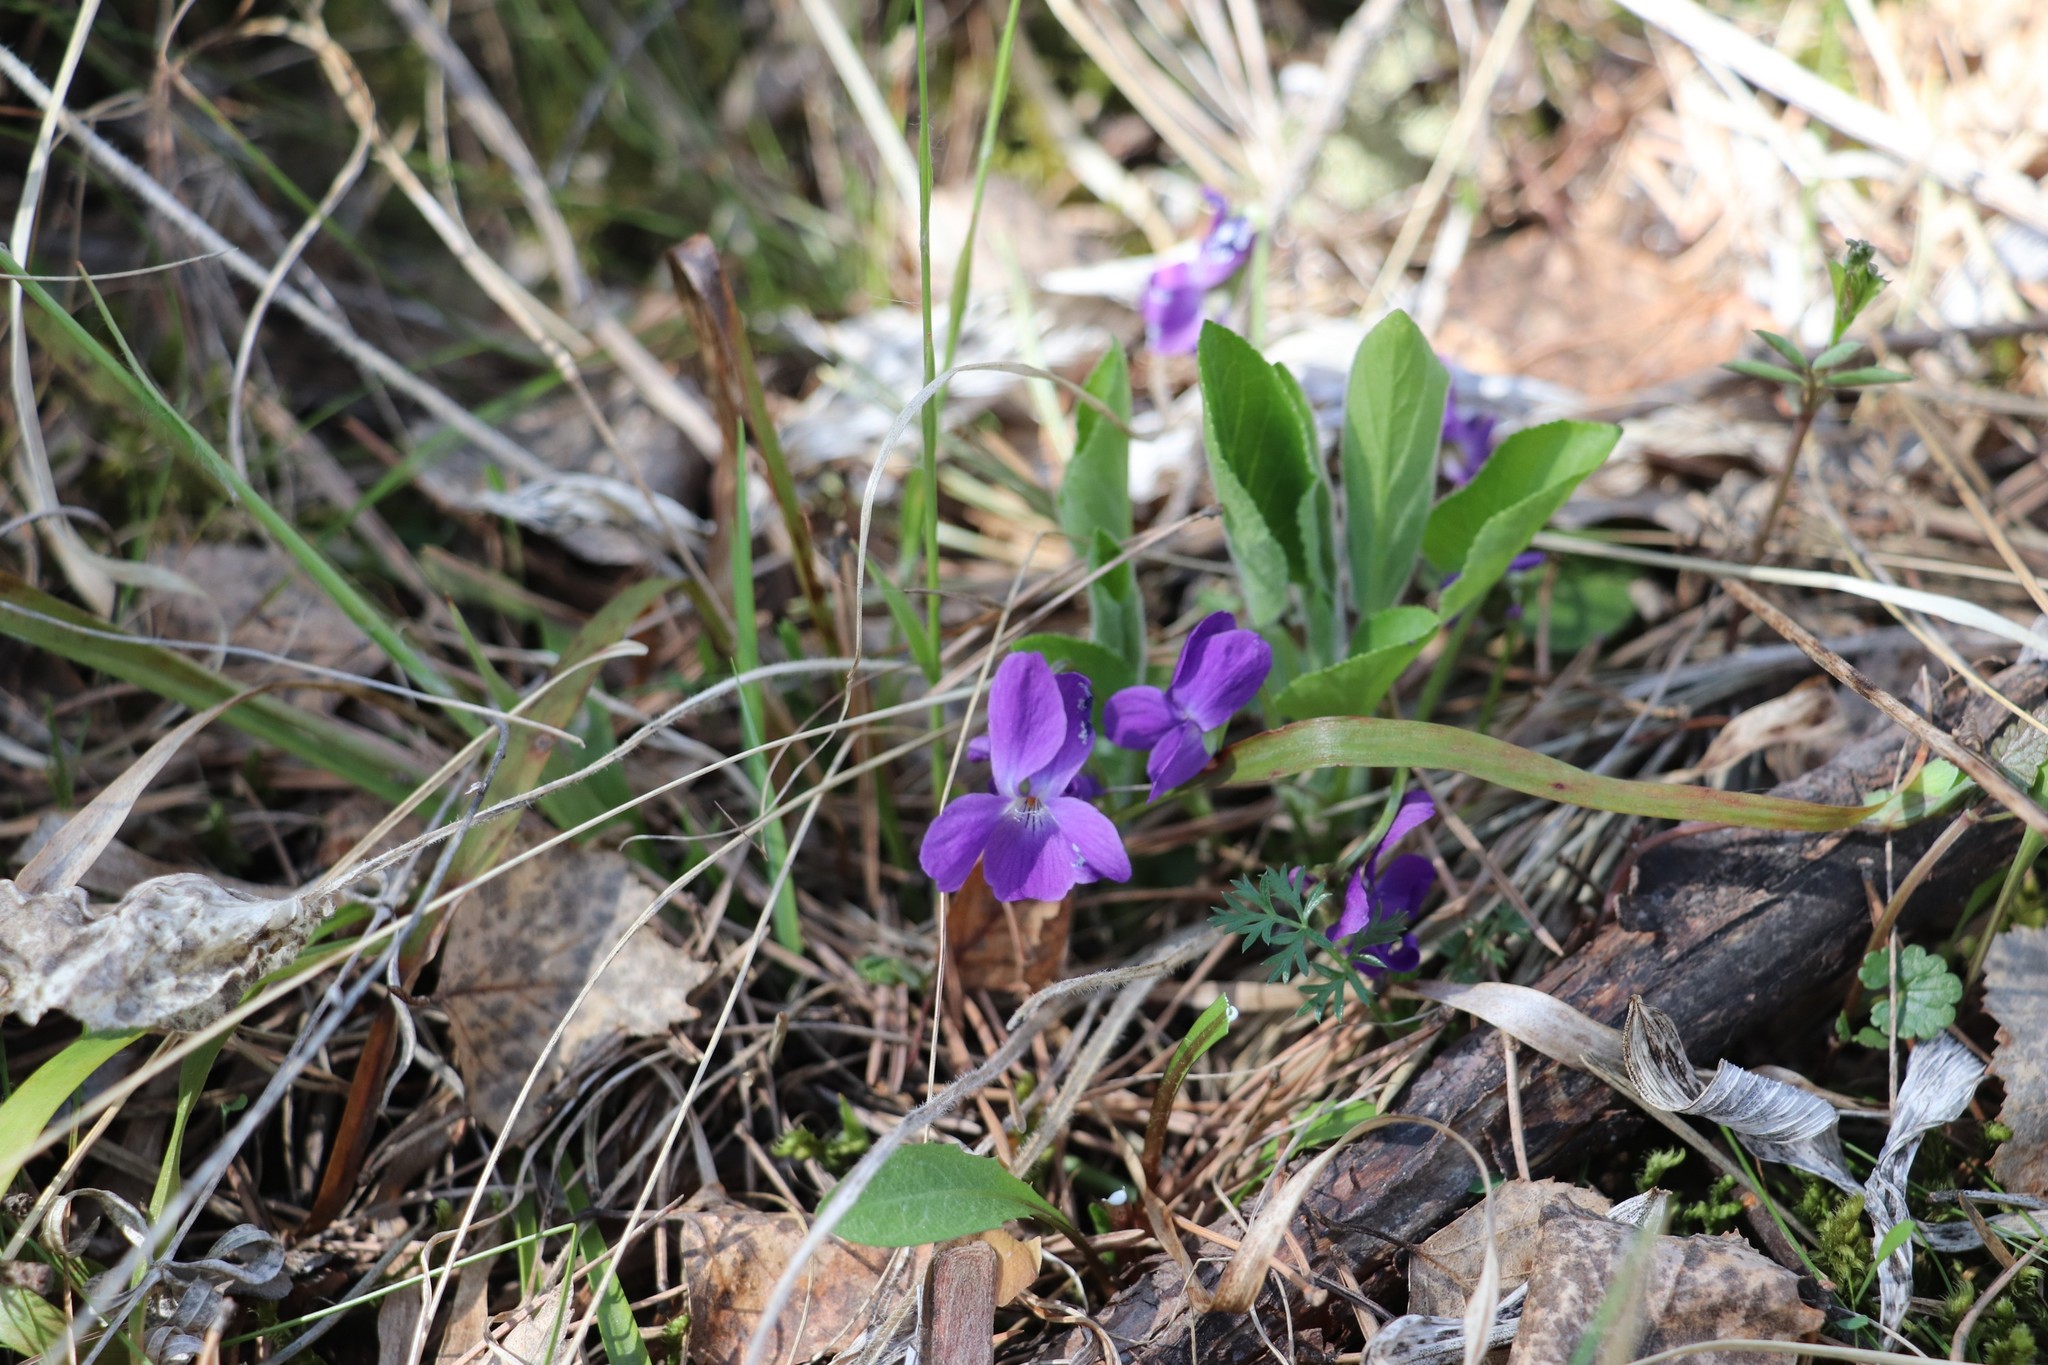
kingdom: Plantae
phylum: Tracheophyta
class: Magnoliopsida
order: Malpighiales
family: Violaceae
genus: Viola
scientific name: Viola hirta
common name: Hairy violet
